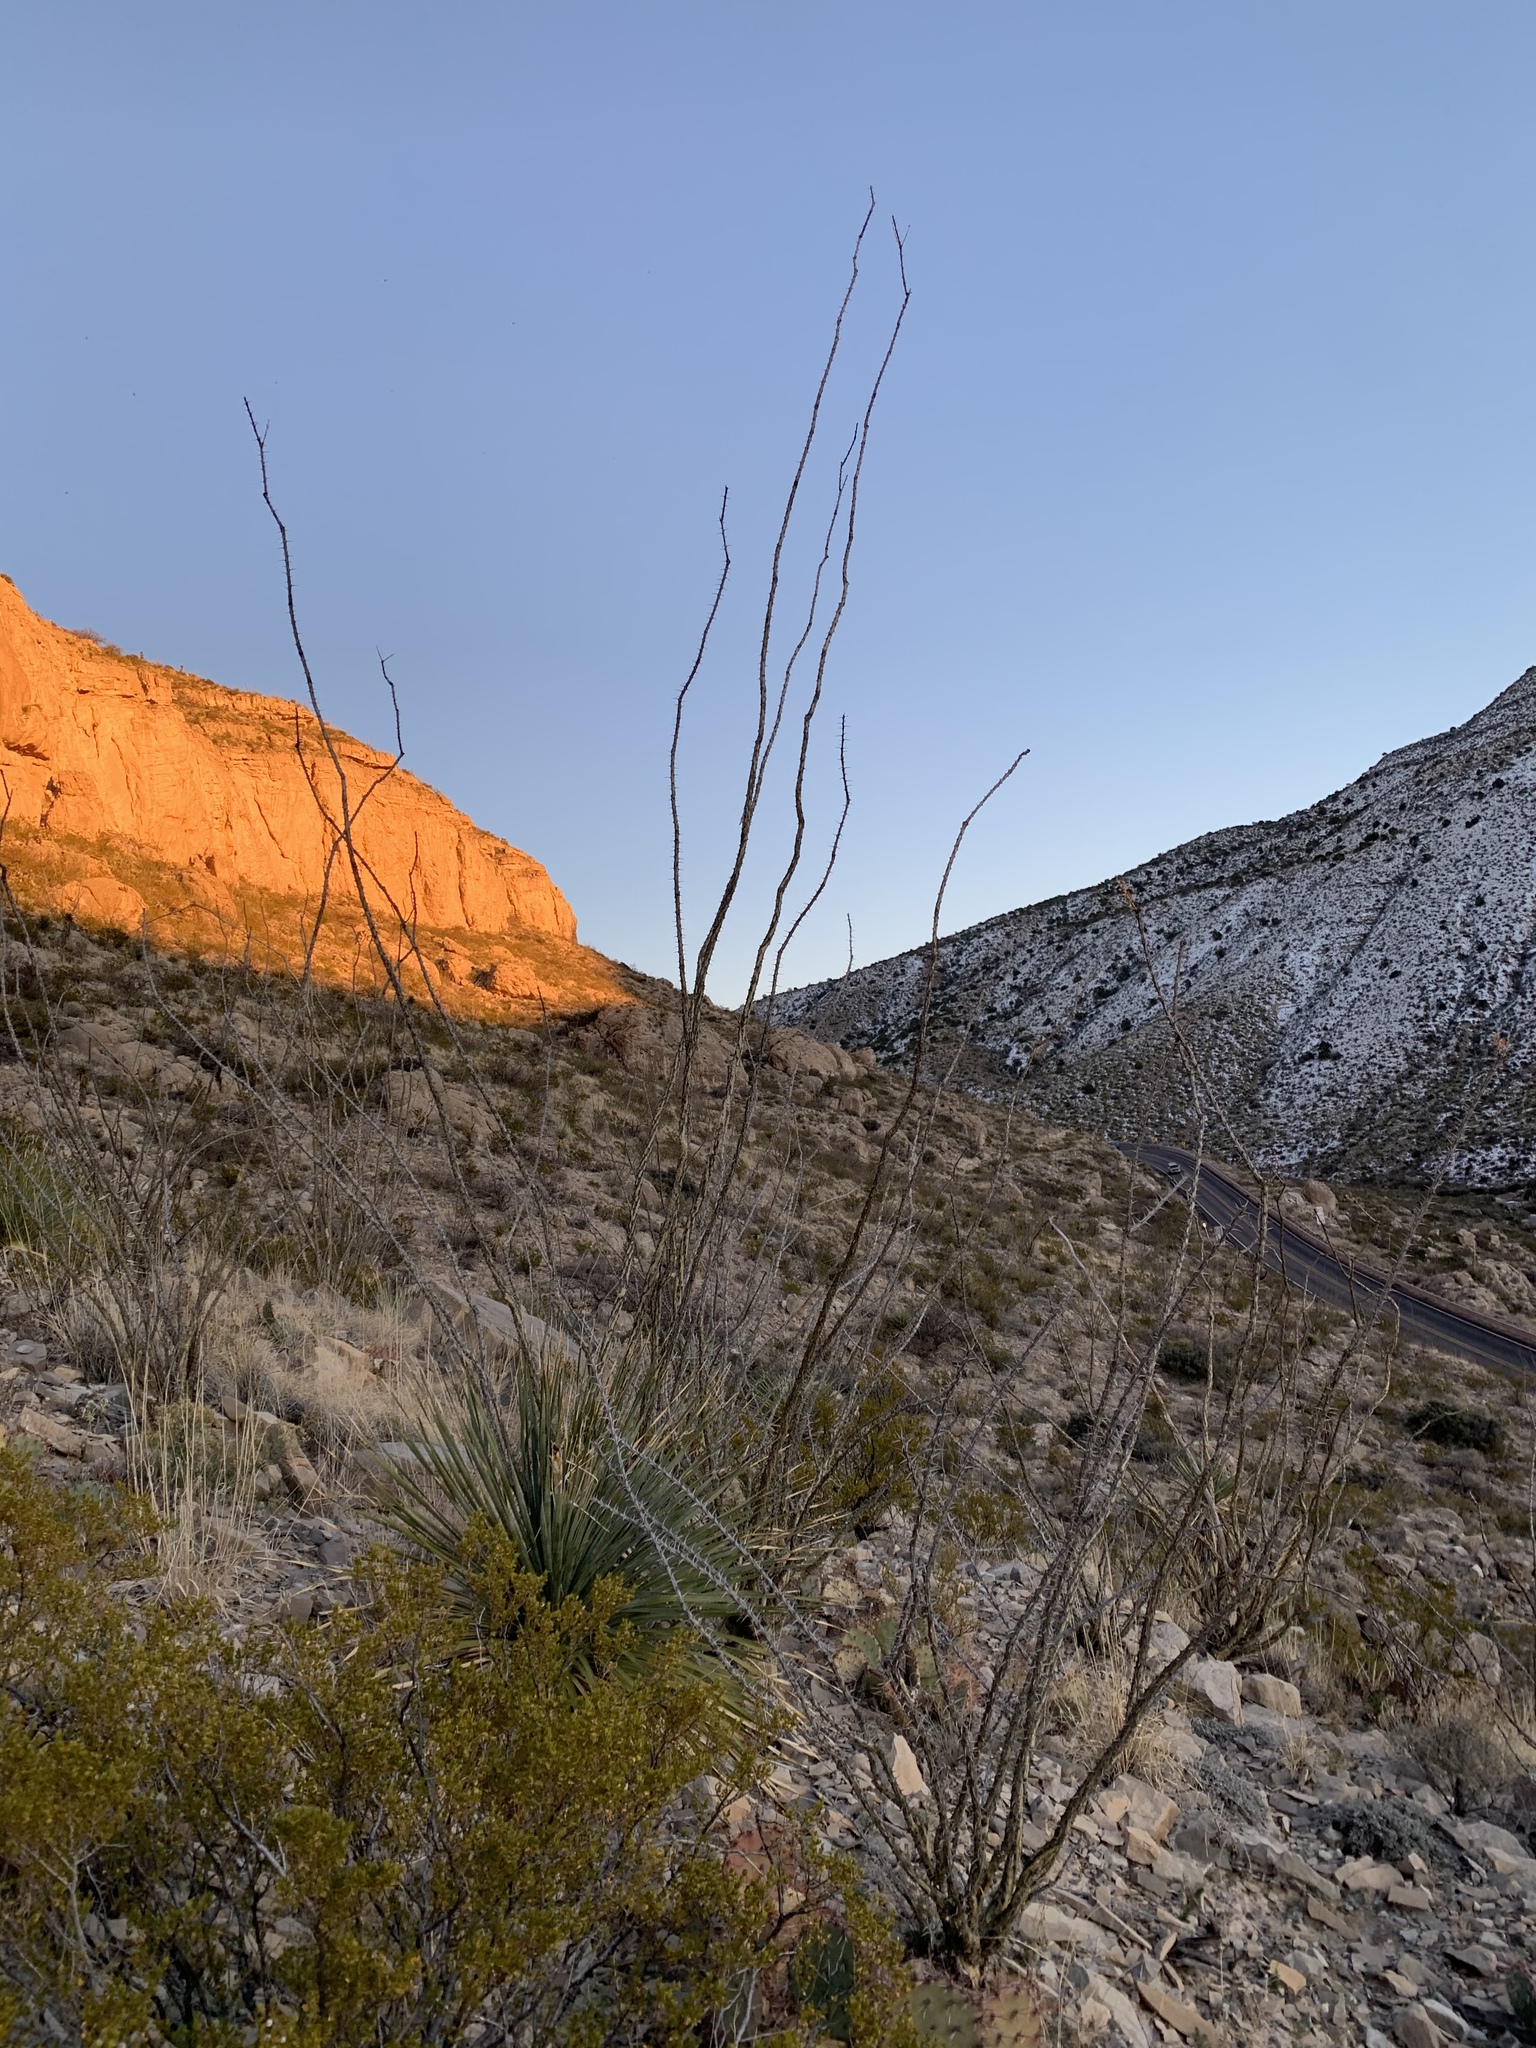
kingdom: Plantae
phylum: Tracheophyta
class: Magnoliopsida
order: Ericales
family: Fouquieriaceae
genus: Fouquieria
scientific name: Fouquieria splendens
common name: Vine-cactus
